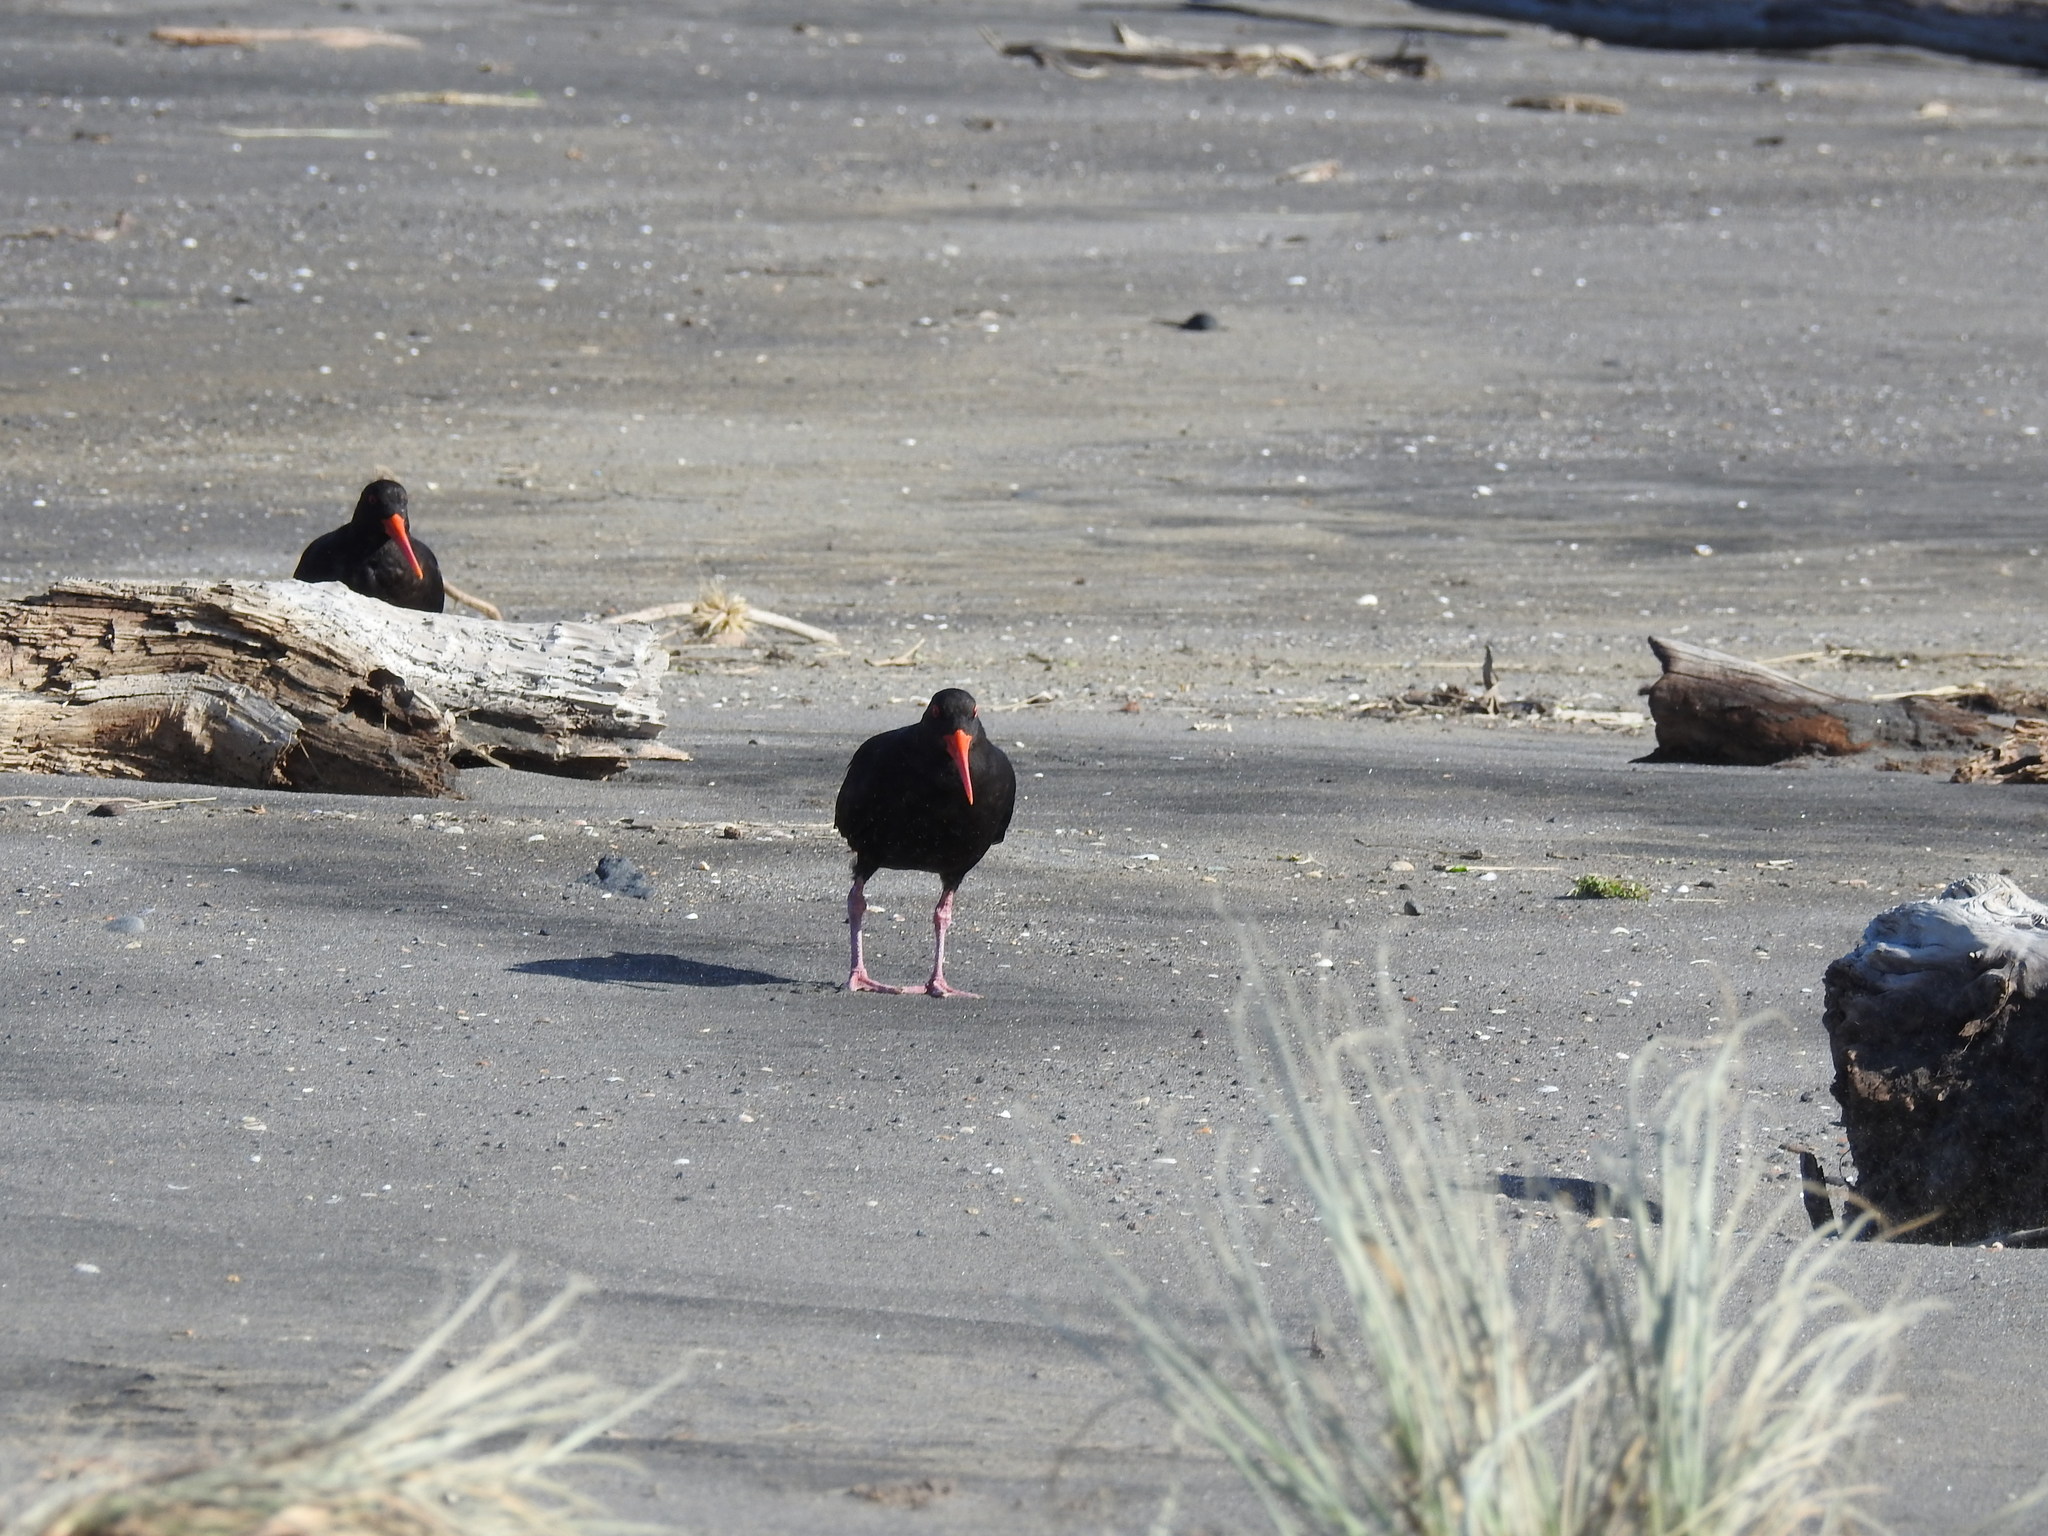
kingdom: Animalia
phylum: Chordata
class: Aves
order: Charadriiformes
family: Haematopodidae
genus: Haematopus
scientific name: Haematopus unicolor
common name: Variable oystercatcher
